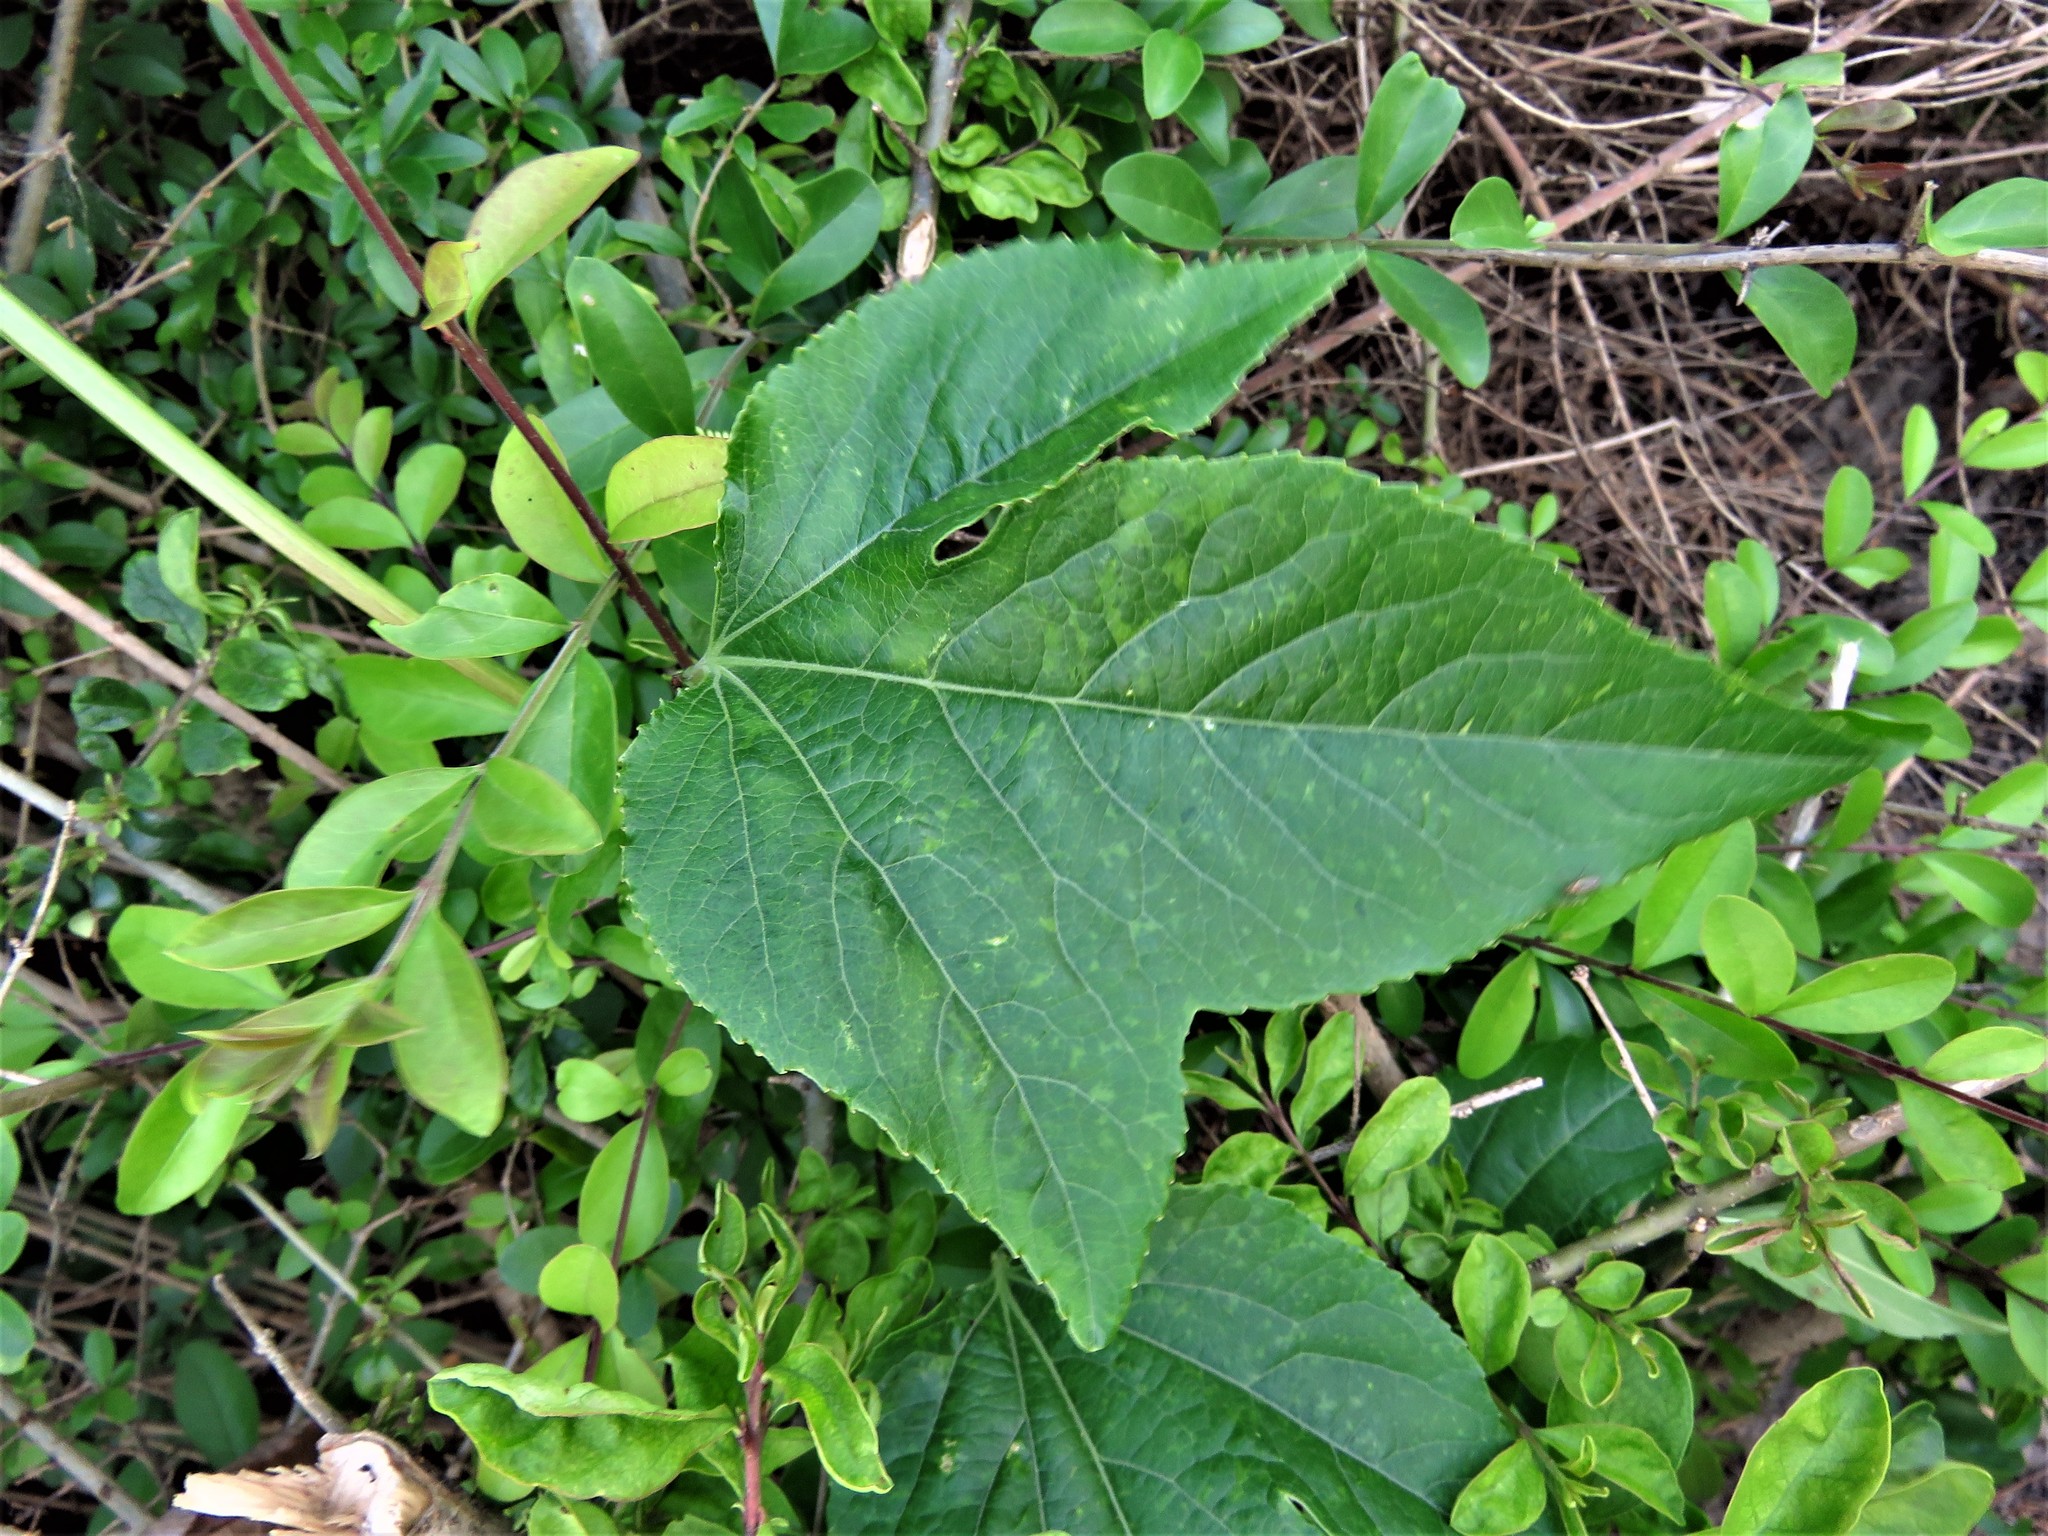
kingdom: Plantae
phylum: Tracheophyta
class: Magnoliopsida
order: Malpighiales
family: Passifloraceae
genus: Passiflora
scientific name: Passiflora incarnata
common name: Apricot-vine
